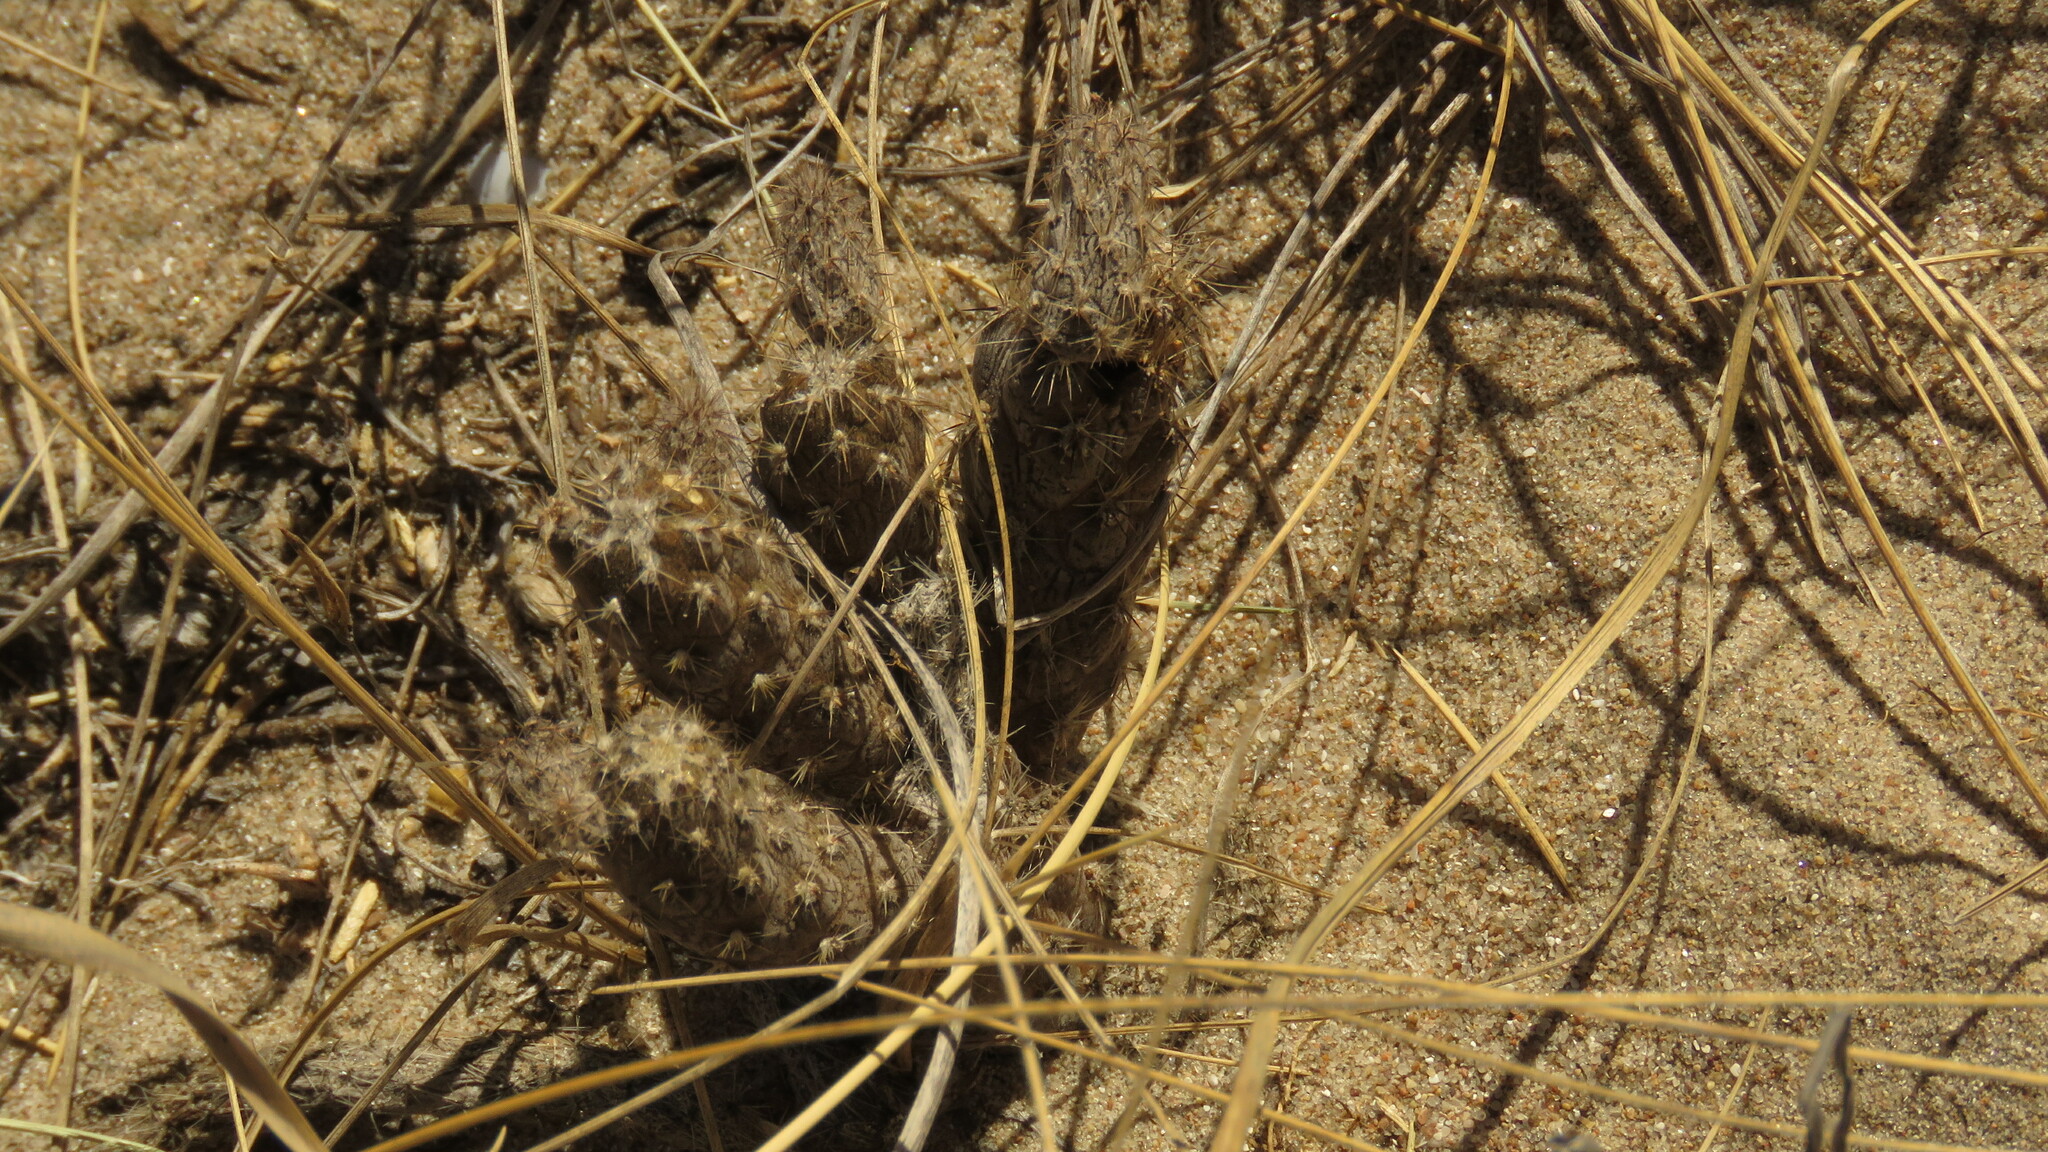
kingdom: Plantae
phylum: Tracheophyta
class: Magnoliopsida
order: Caryophyllales
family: Cactaceae
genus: Pterocactus
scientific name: Pterocactus valentini
